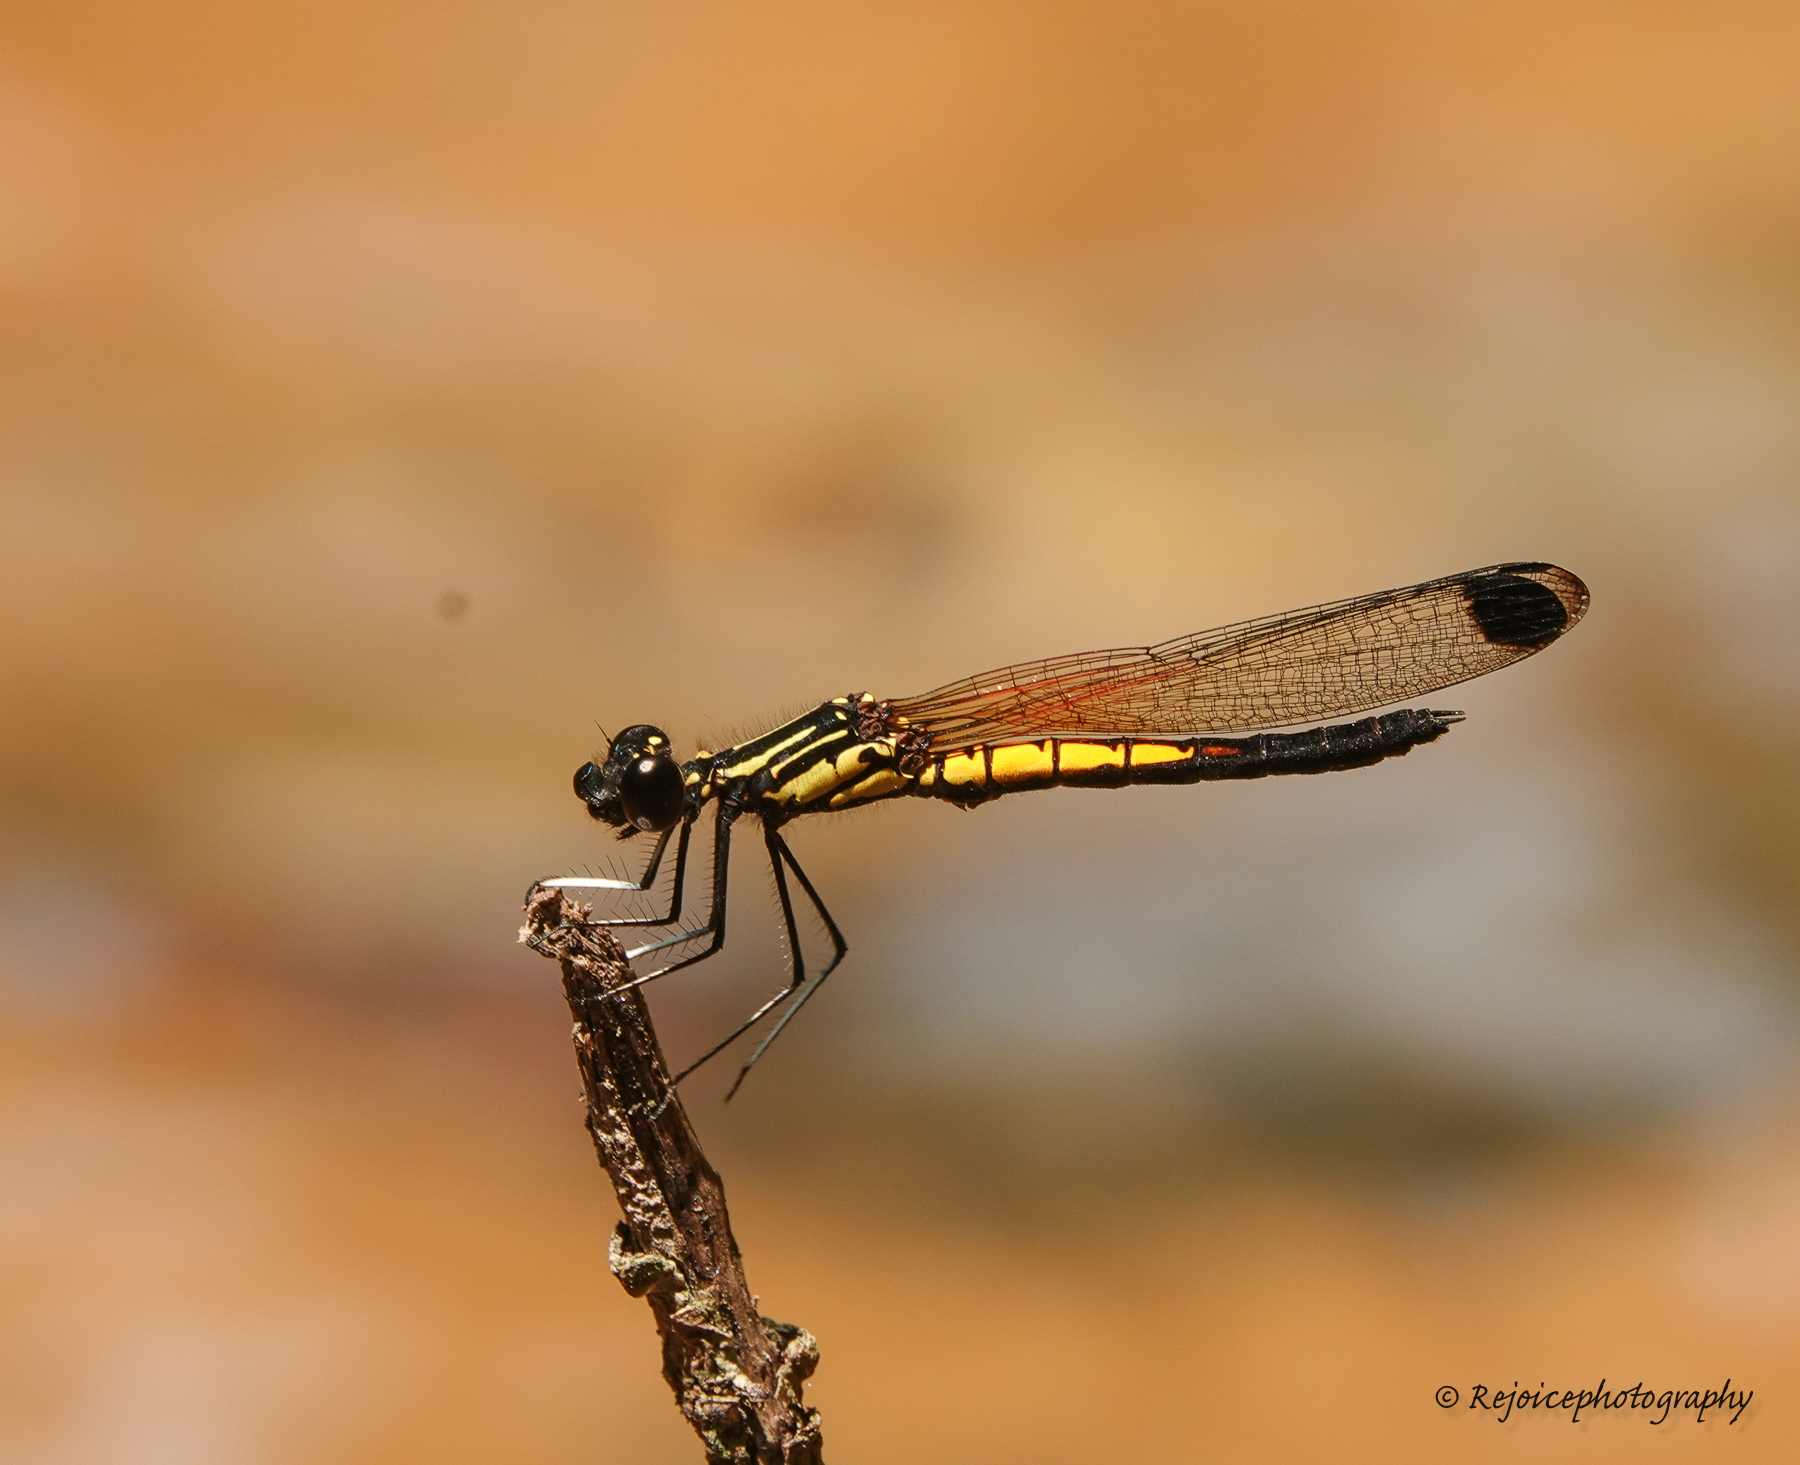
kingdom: Animalia
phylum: Arthropoda
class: Insecta
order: Odonata
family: Chlorocyphidae
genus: Libellago
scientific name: Libellago lineata
